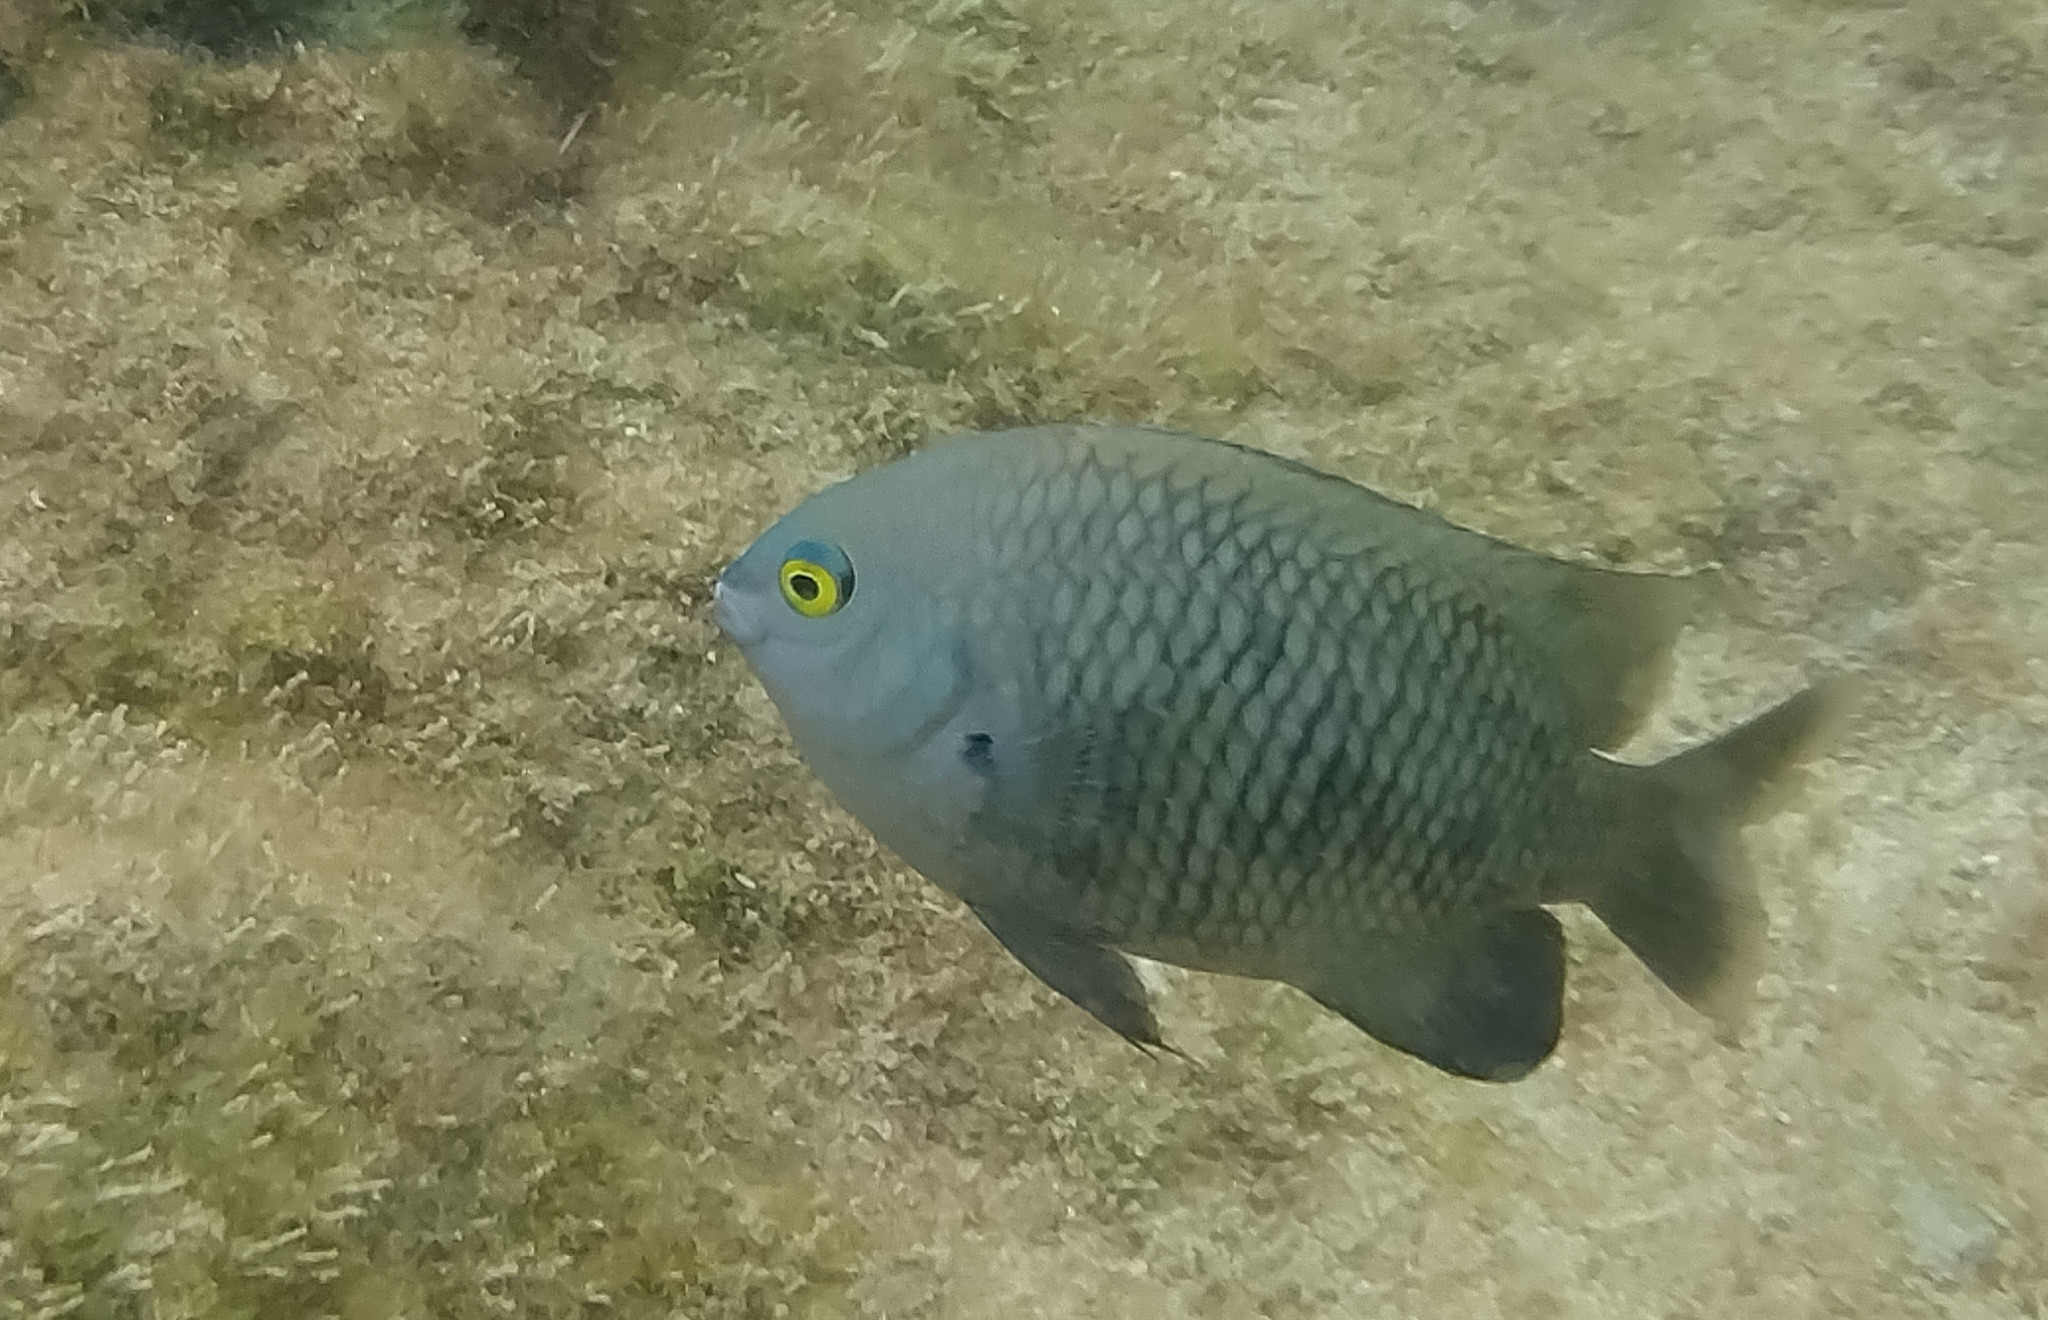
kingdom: Animalia
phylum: Chordata
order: Perciformes
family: Pomacentridae
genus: Stegastes
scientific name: Stegastes fasciolatus
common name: Pacific gregory
